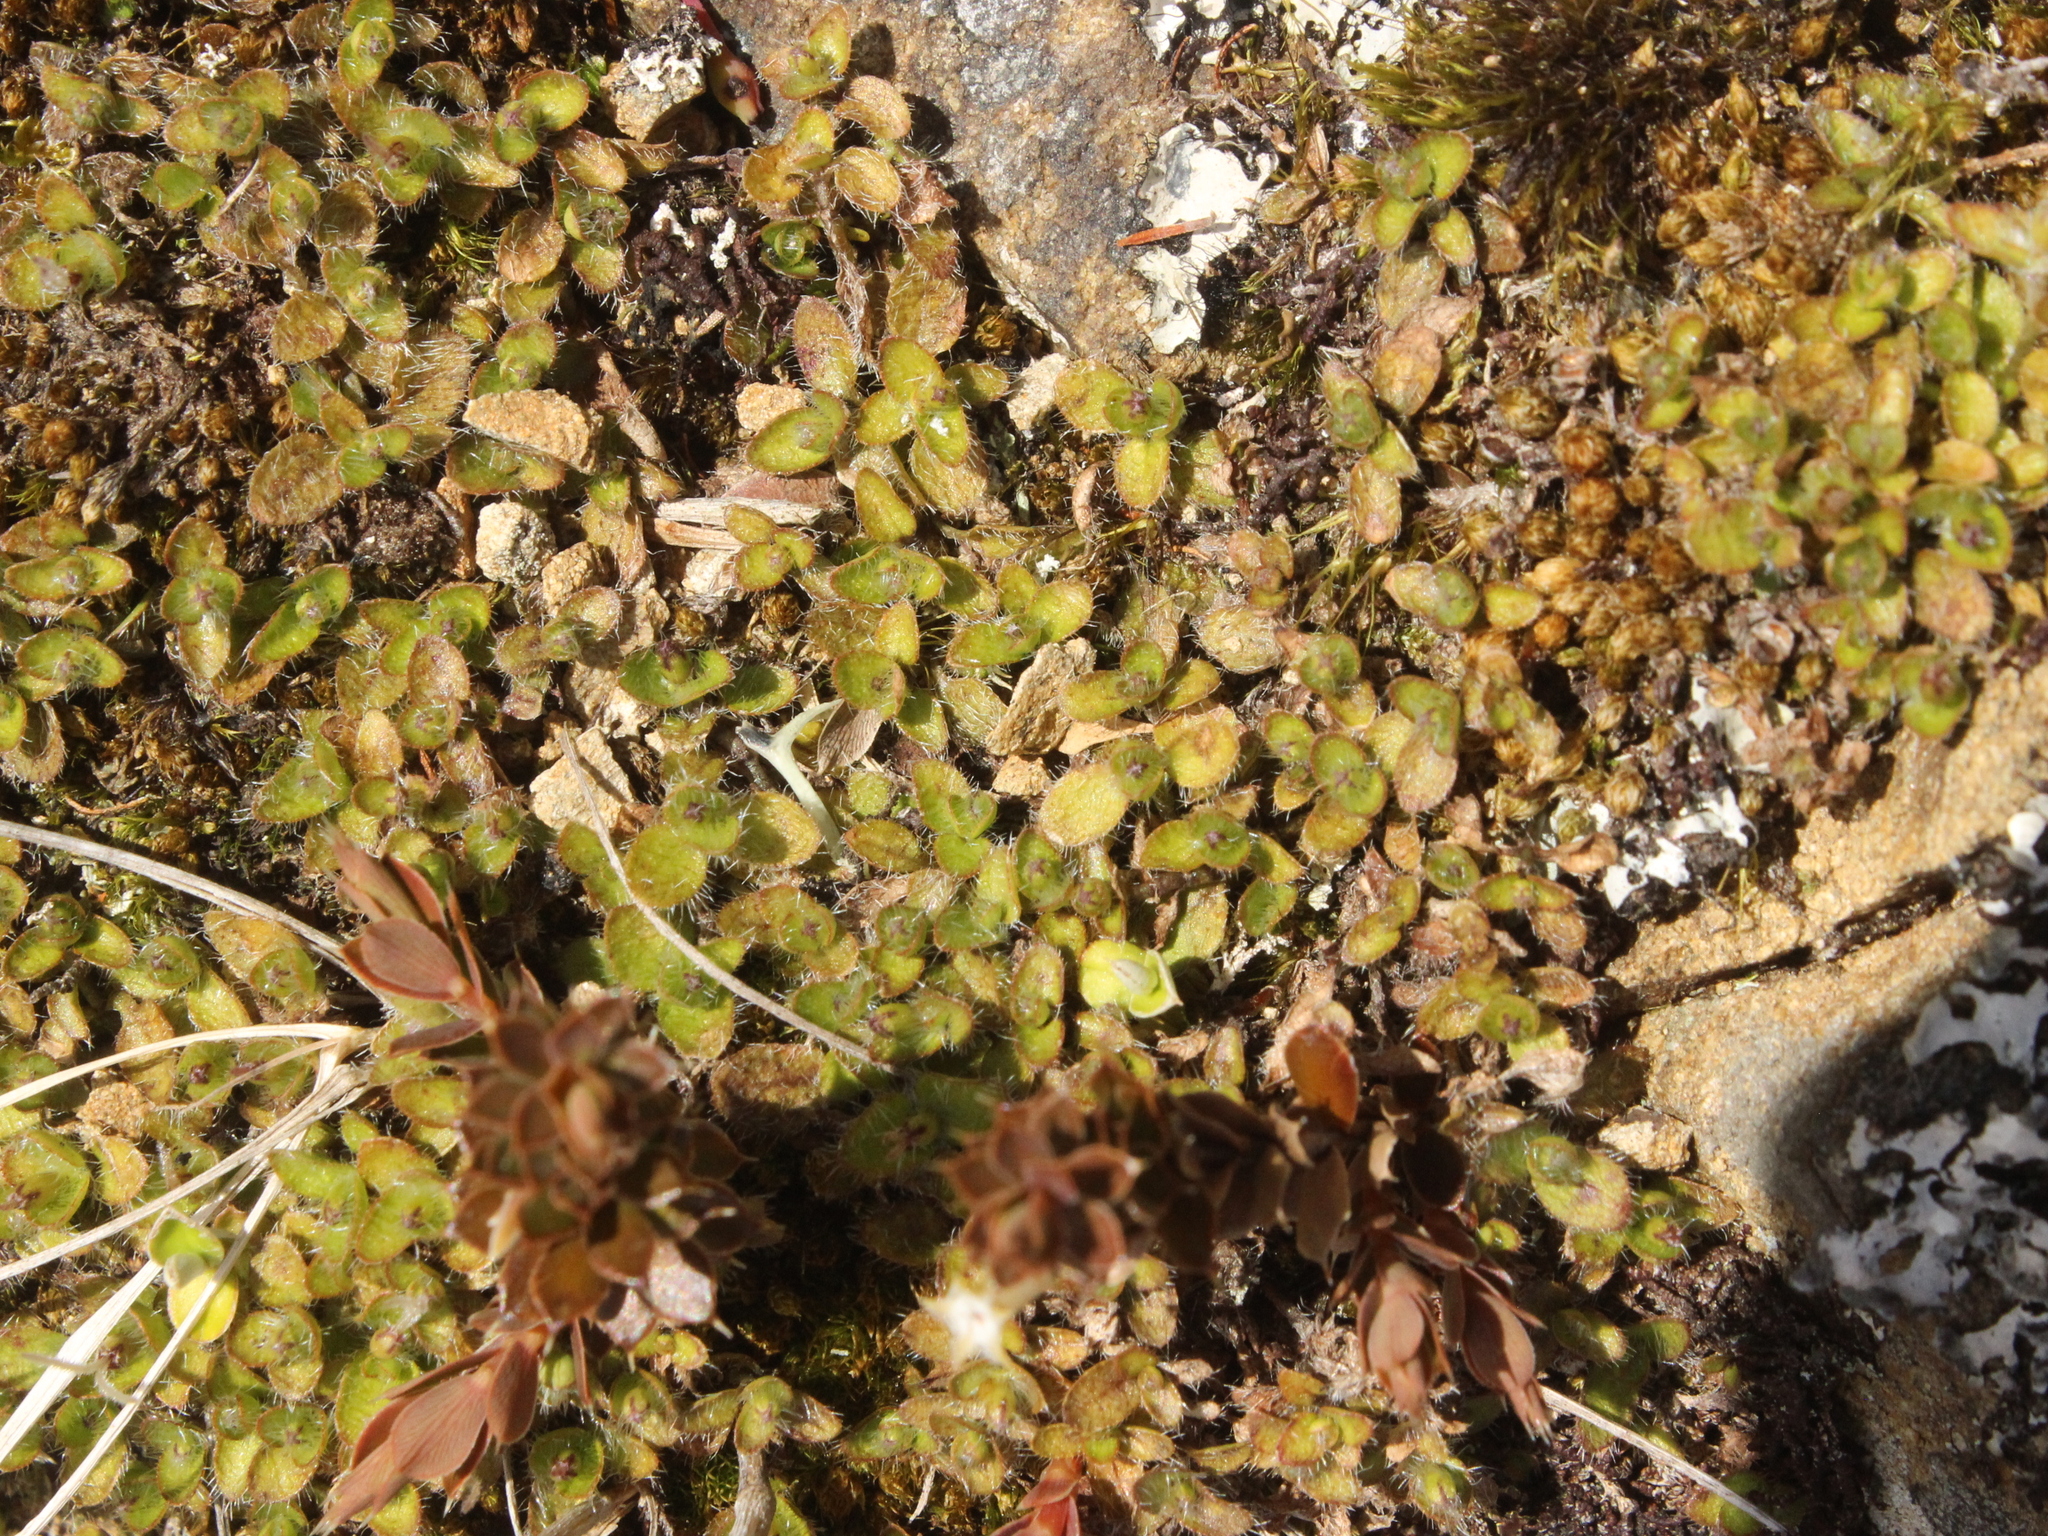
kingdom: Plantae
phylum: Tracheophyta
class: Magnoliopsida
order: Gentianales
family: Rubiaceae
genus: Leptostigma
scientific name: Leptostigma setulosum
